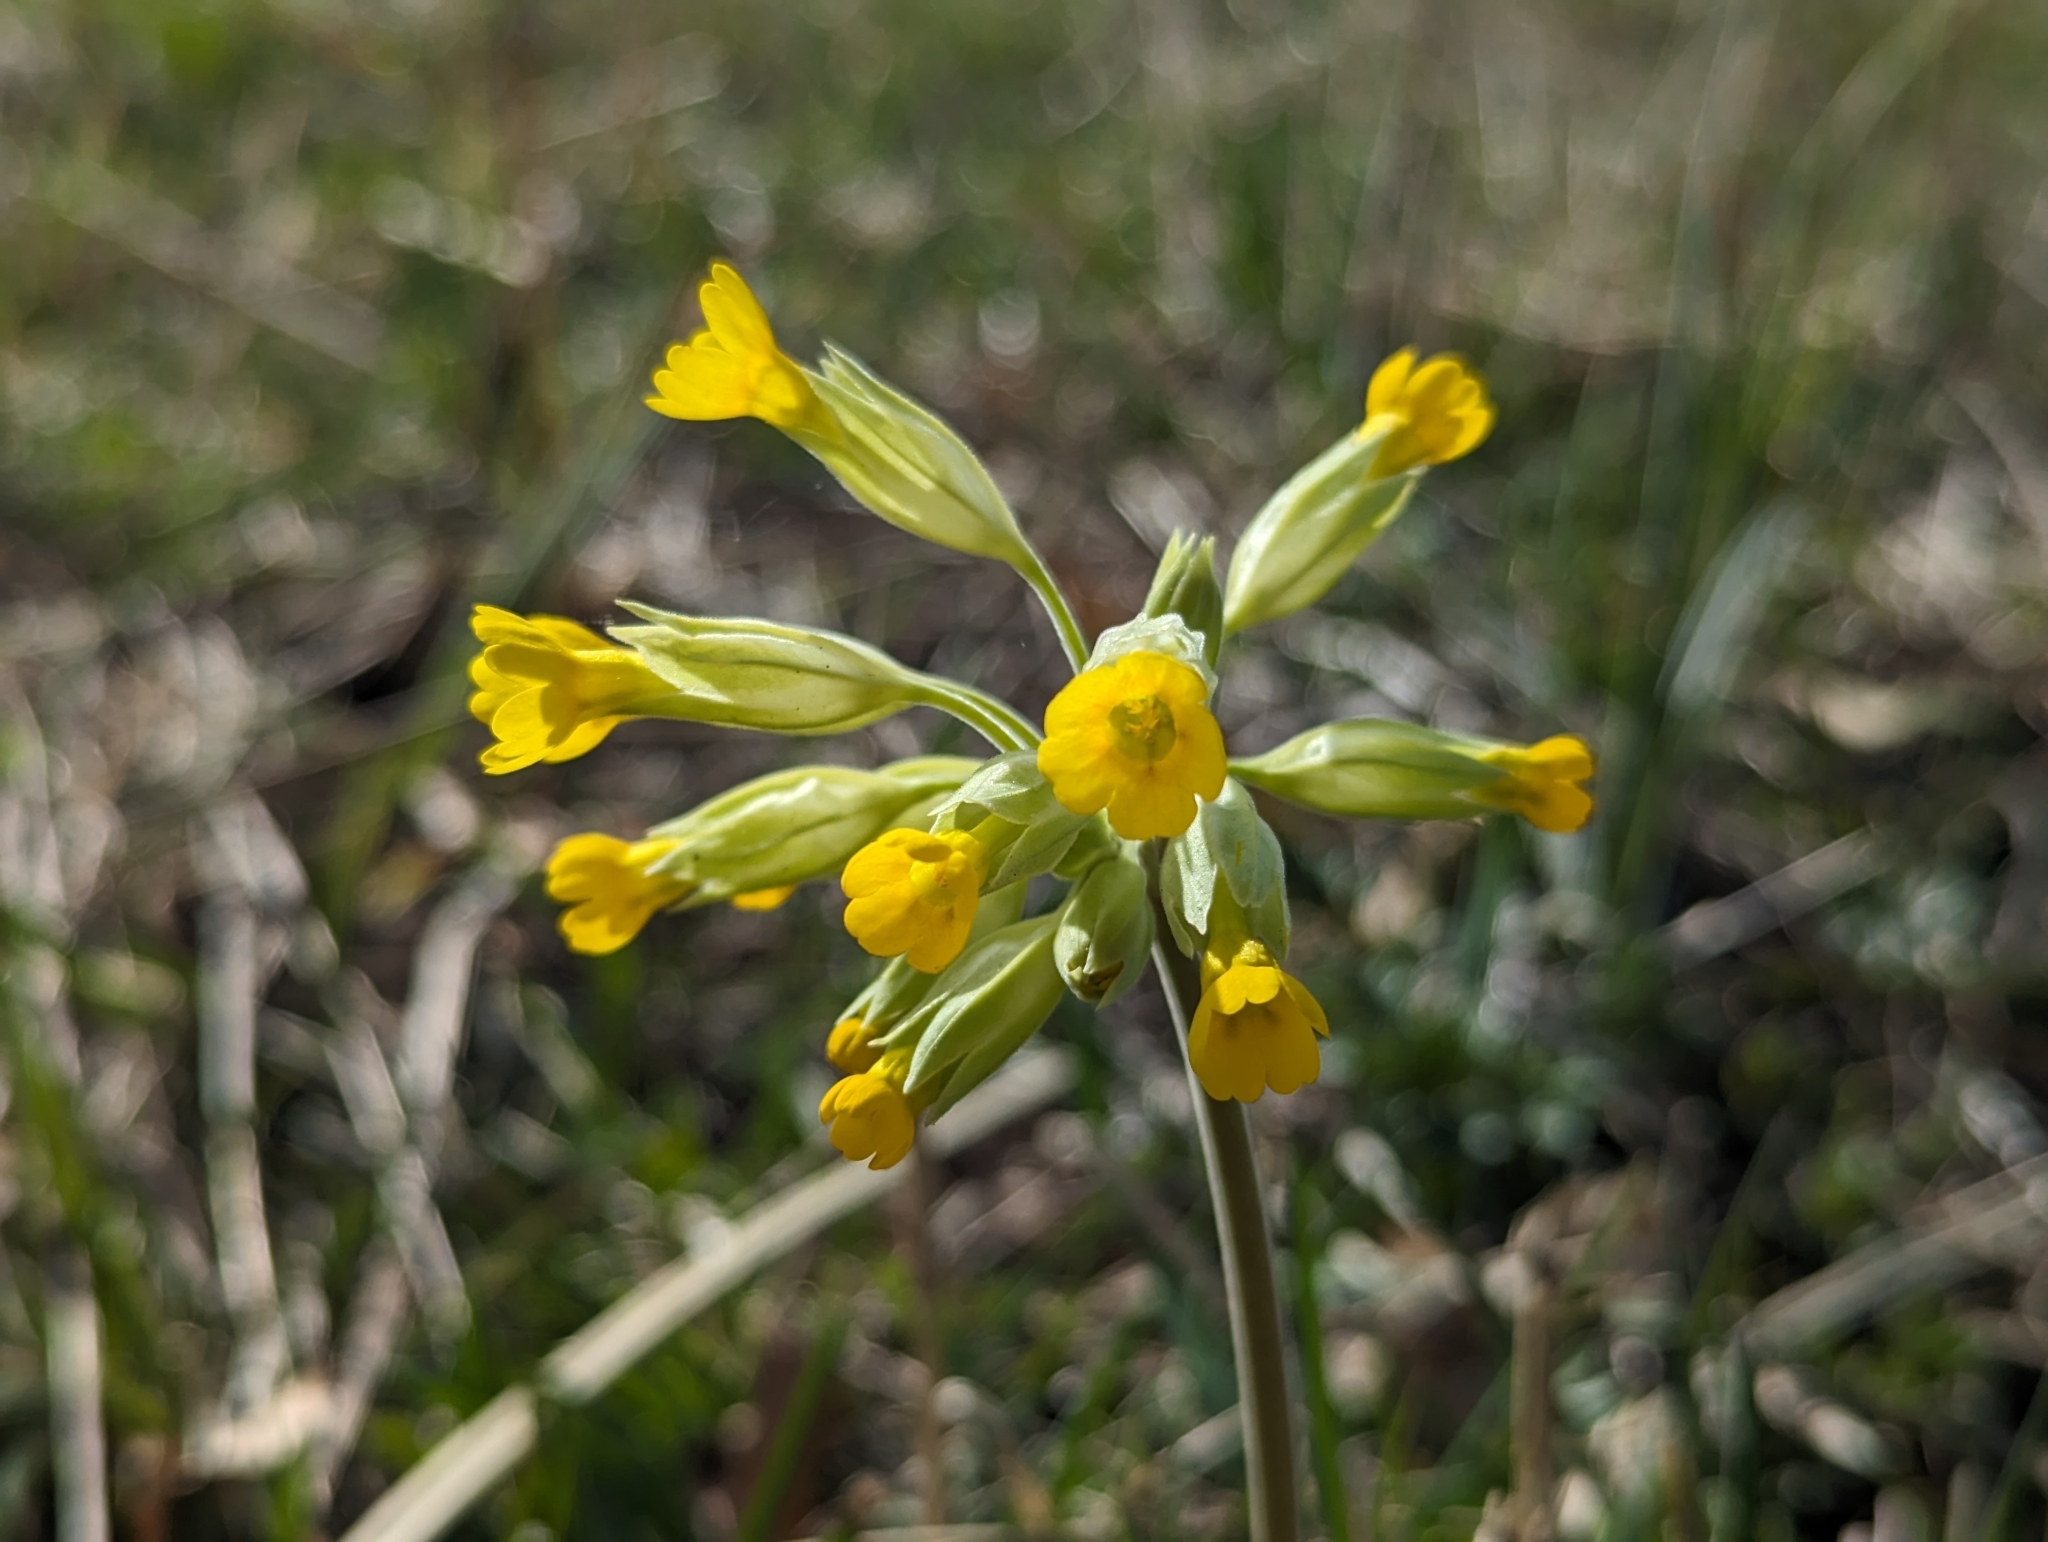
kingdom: Plantae
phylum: Tracheophyta
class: Magnoliopsida
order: Ericales
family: Primulaceae
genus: Primula
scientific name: Primula veris
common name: Cowslip
